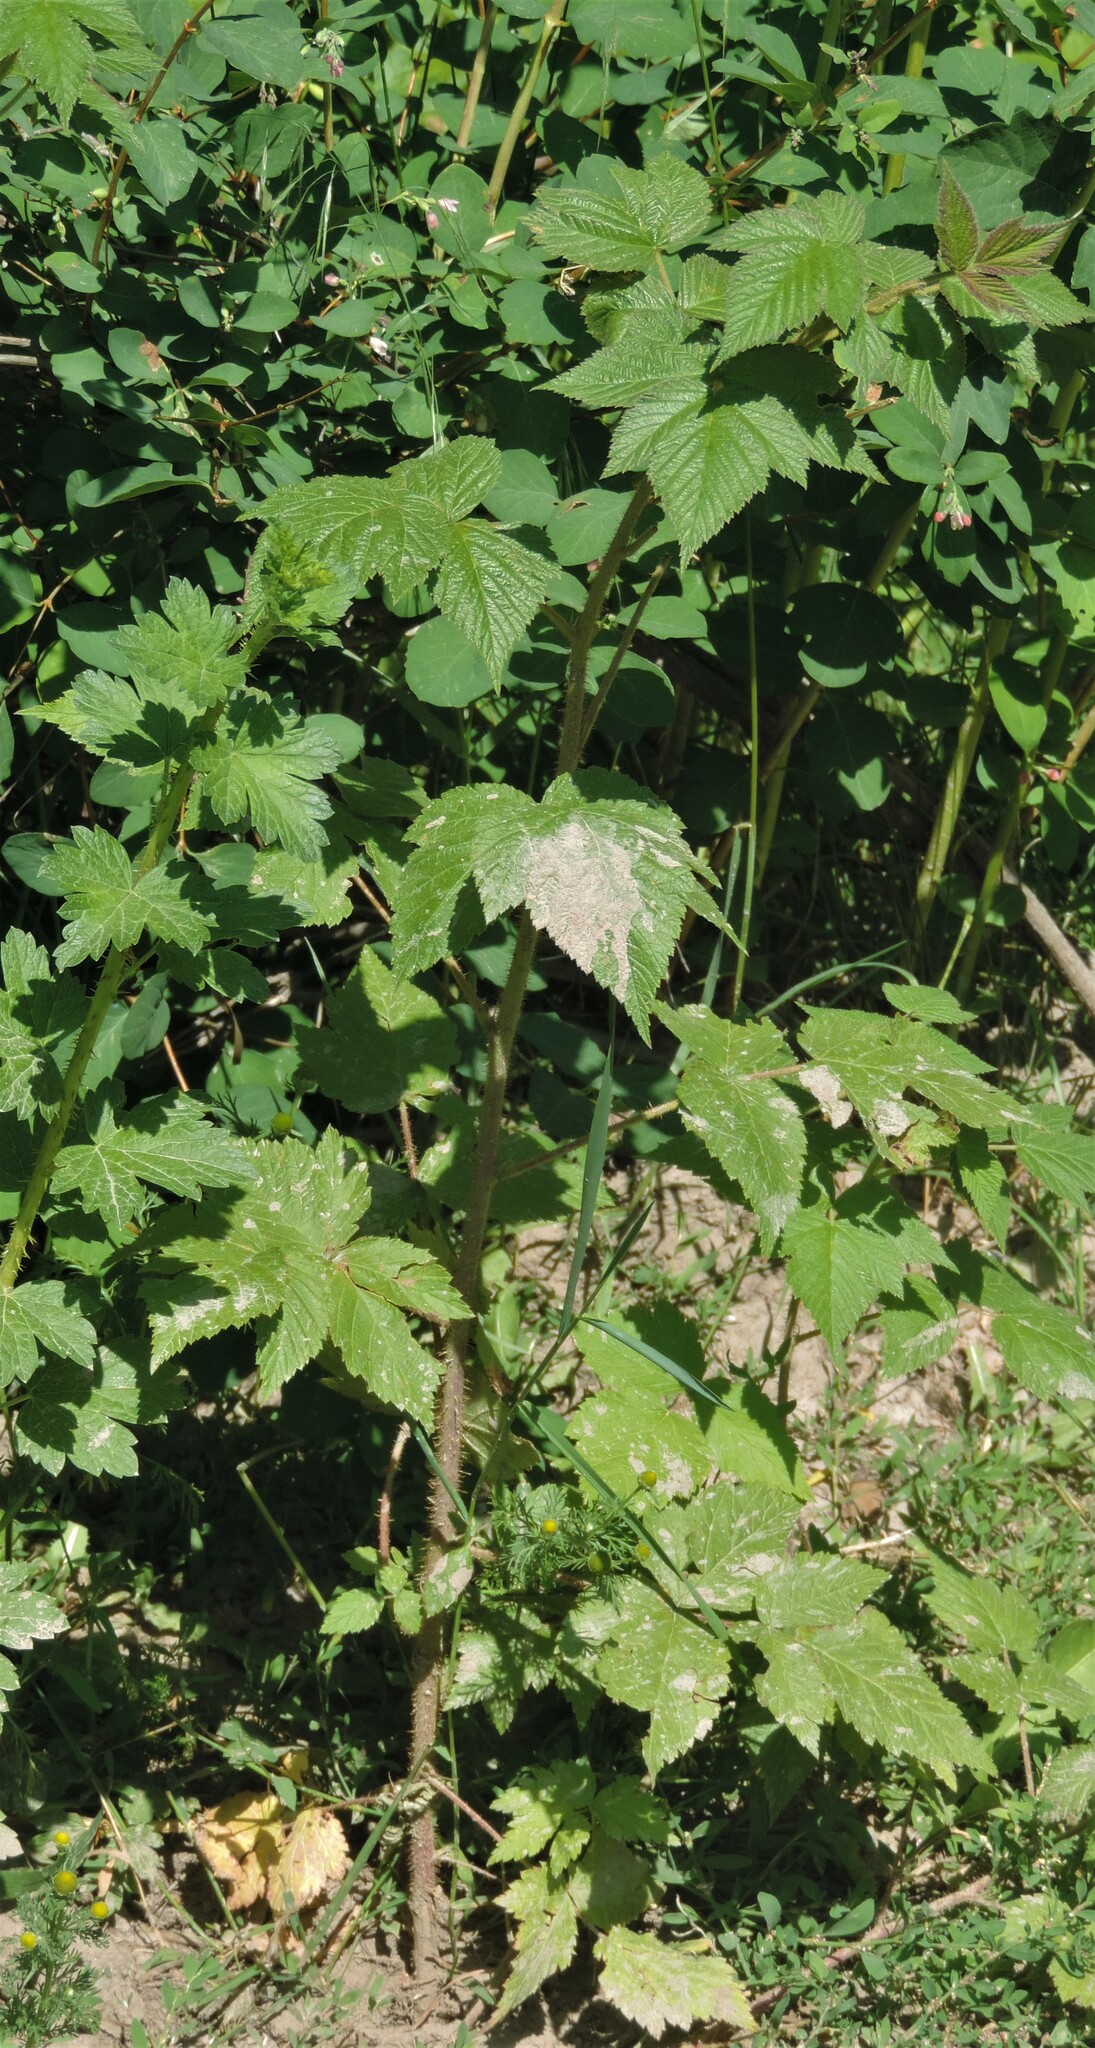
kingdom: Plantae
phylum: Tracheophyta
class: Magnoliopsida
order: Rosales
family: Rosaceae
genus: Rubus
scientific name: Rubus idaeus
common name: Raspberry
